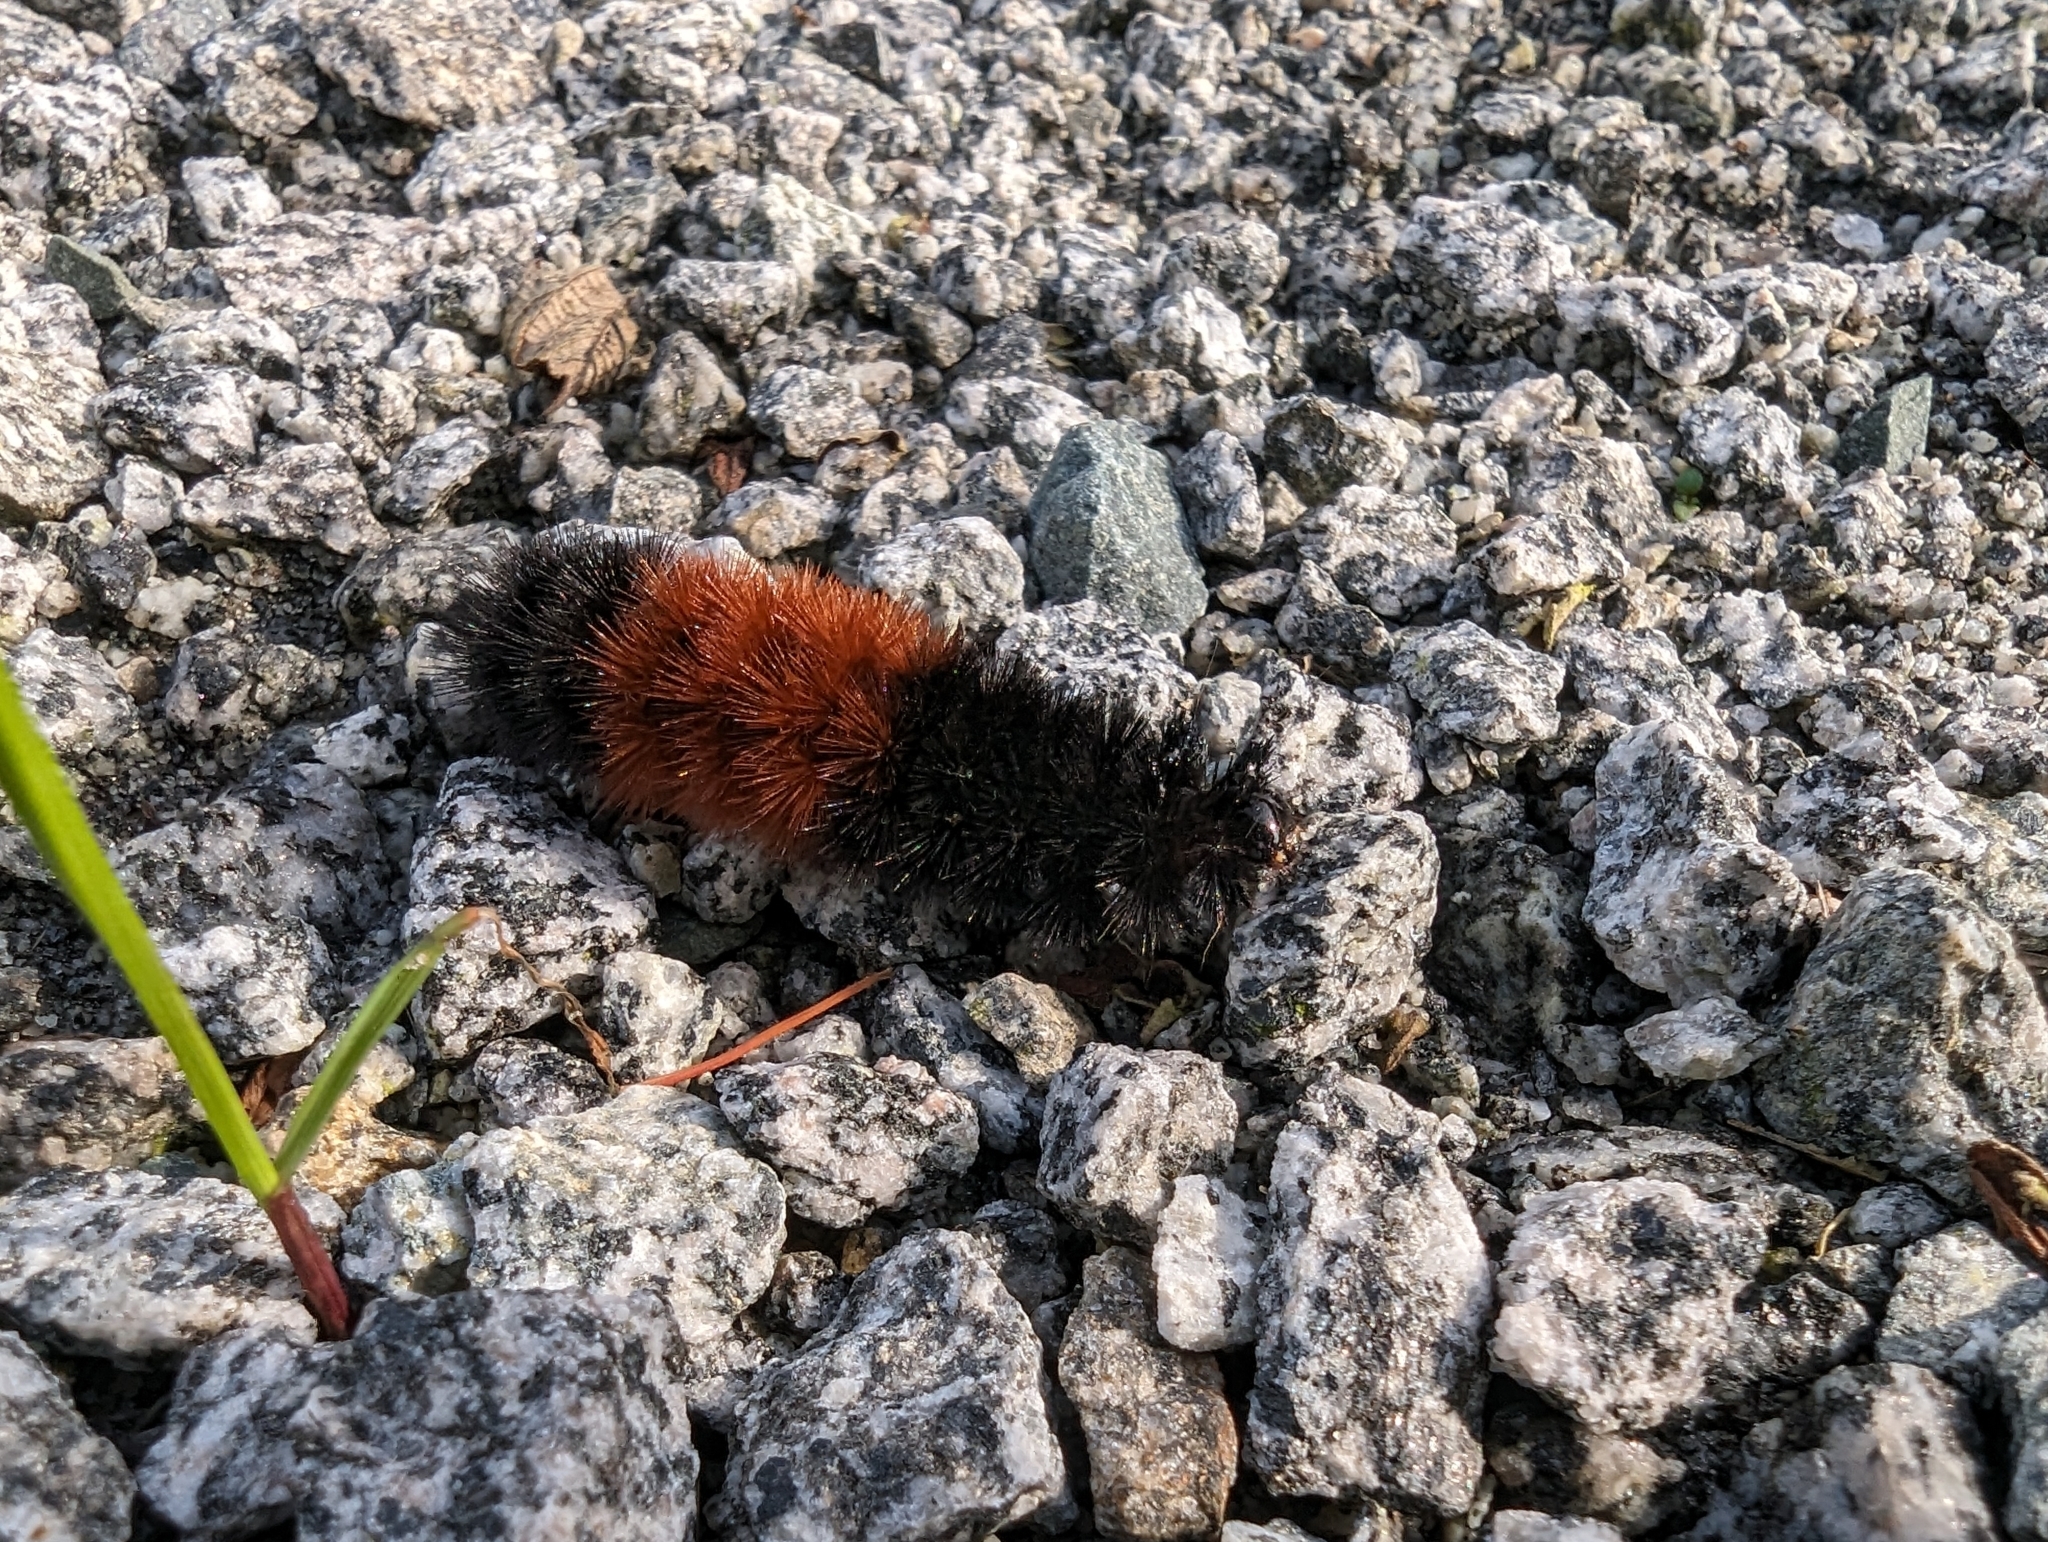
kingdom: Animalia
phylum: Arthropoda
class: Insecta
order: Lepidoptera
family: Erebidae
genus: Pyrrharctia
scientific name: Pyrrharctia isabella
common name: Isabella tiger moth
